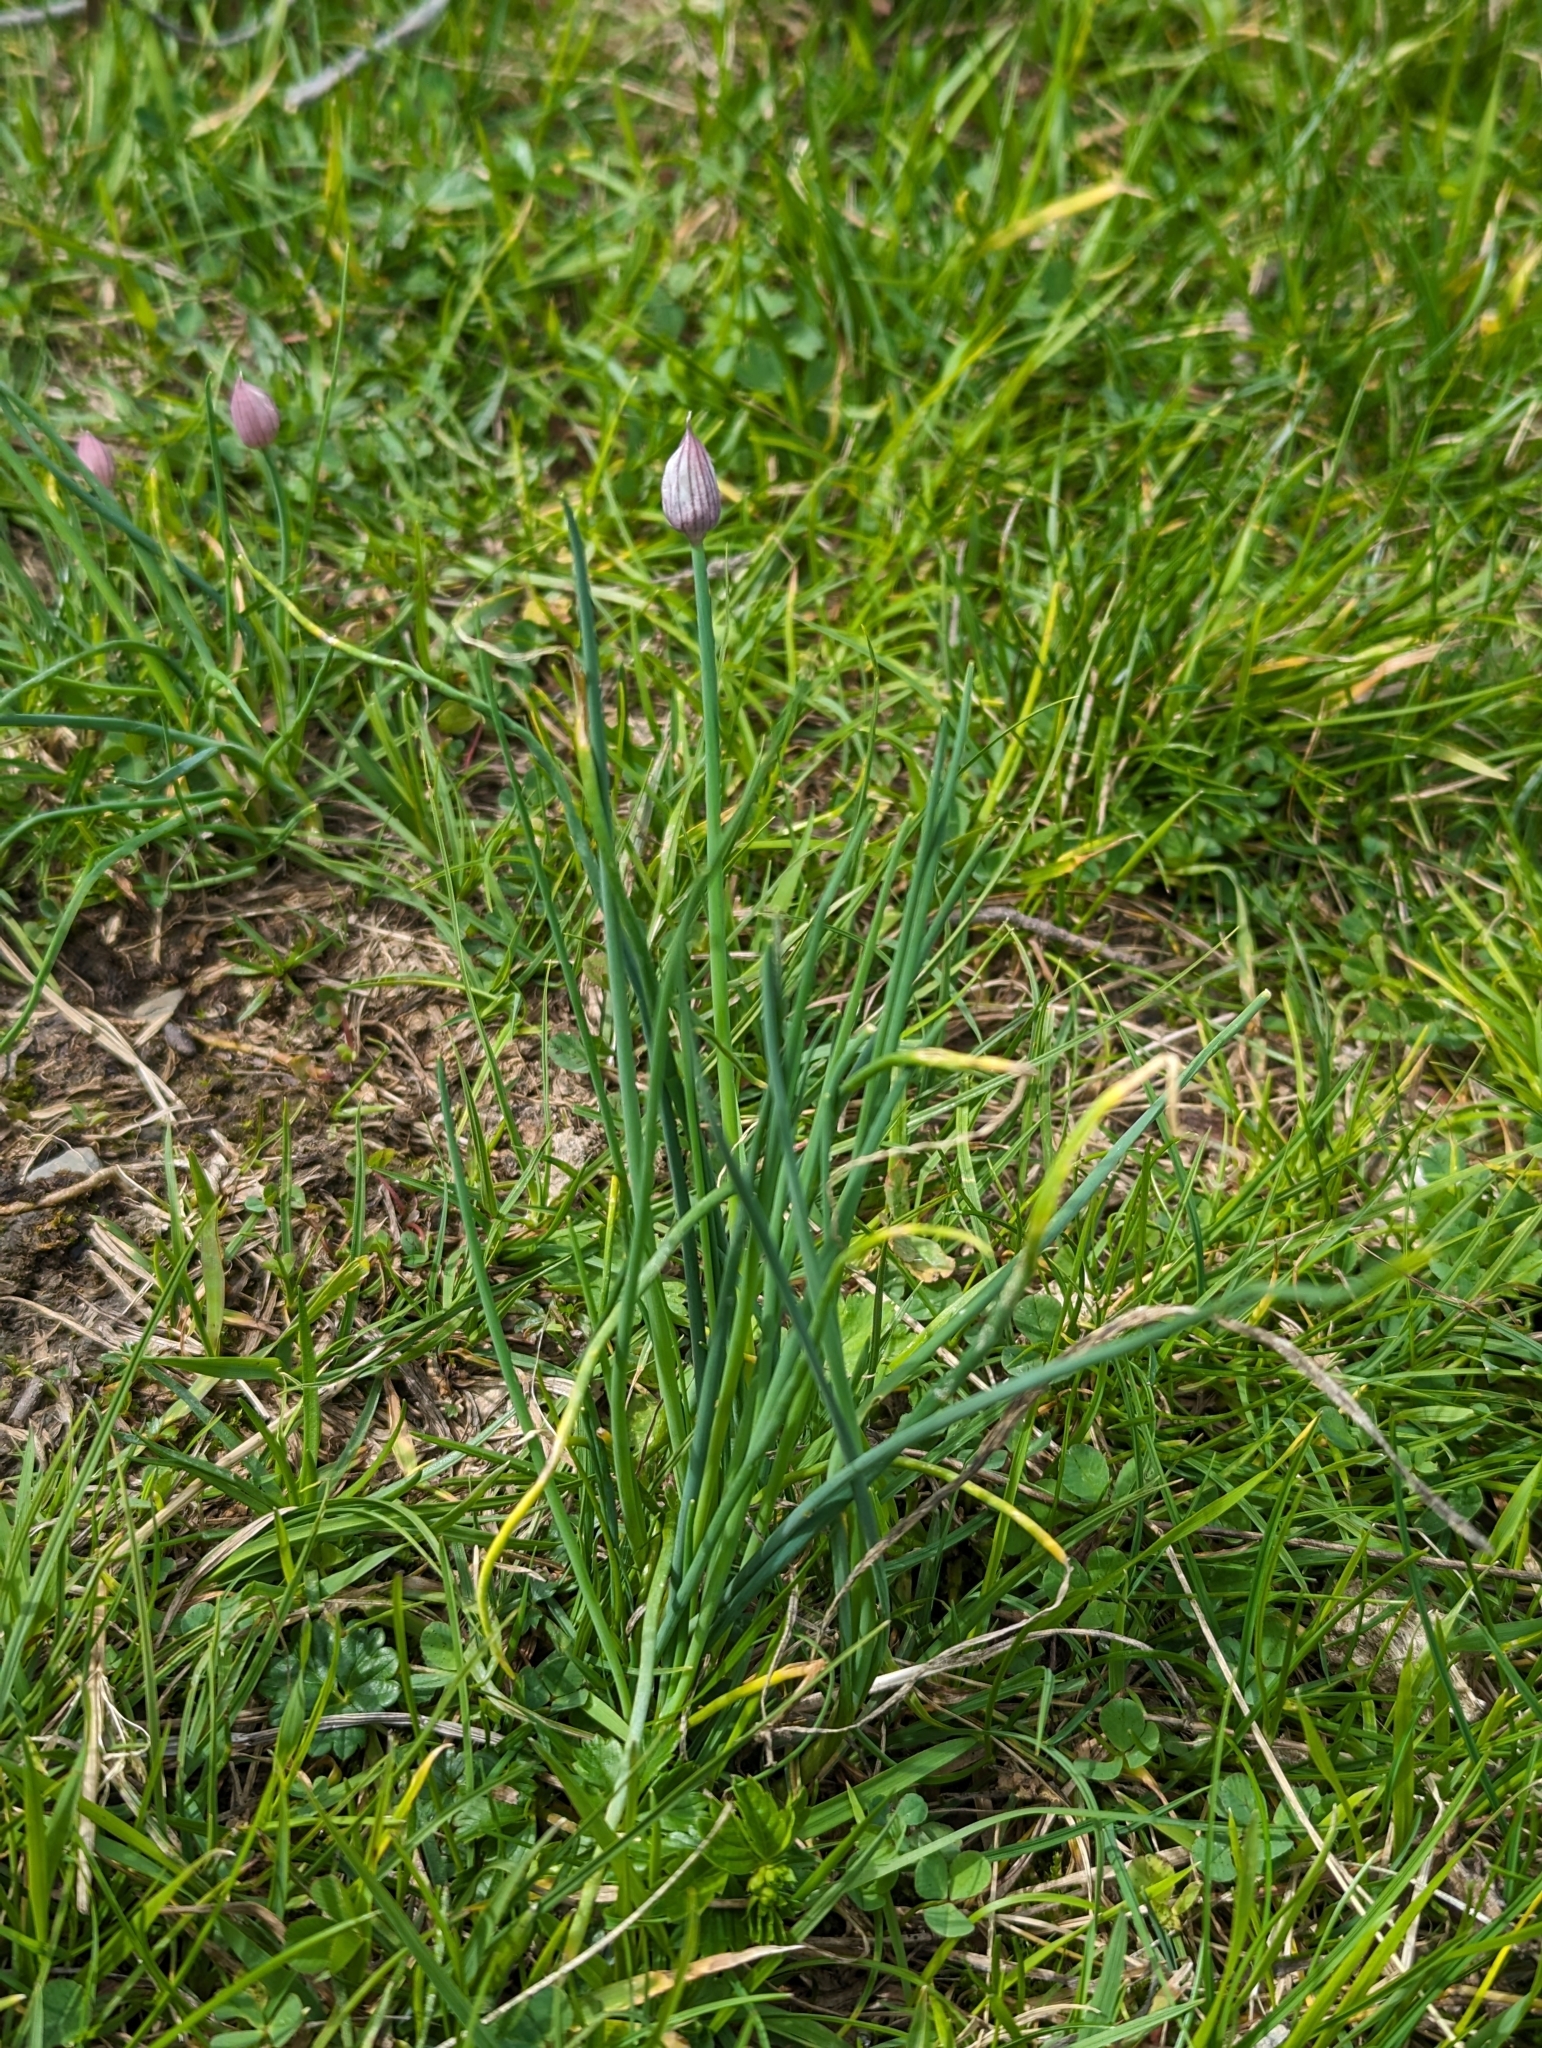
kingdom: Plantae
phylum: Tracheophyta
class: Liliopsida
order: Asparagales
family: Amaryllidaceae
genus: Allium
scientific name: Allium schoenoprasum
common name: Chives
